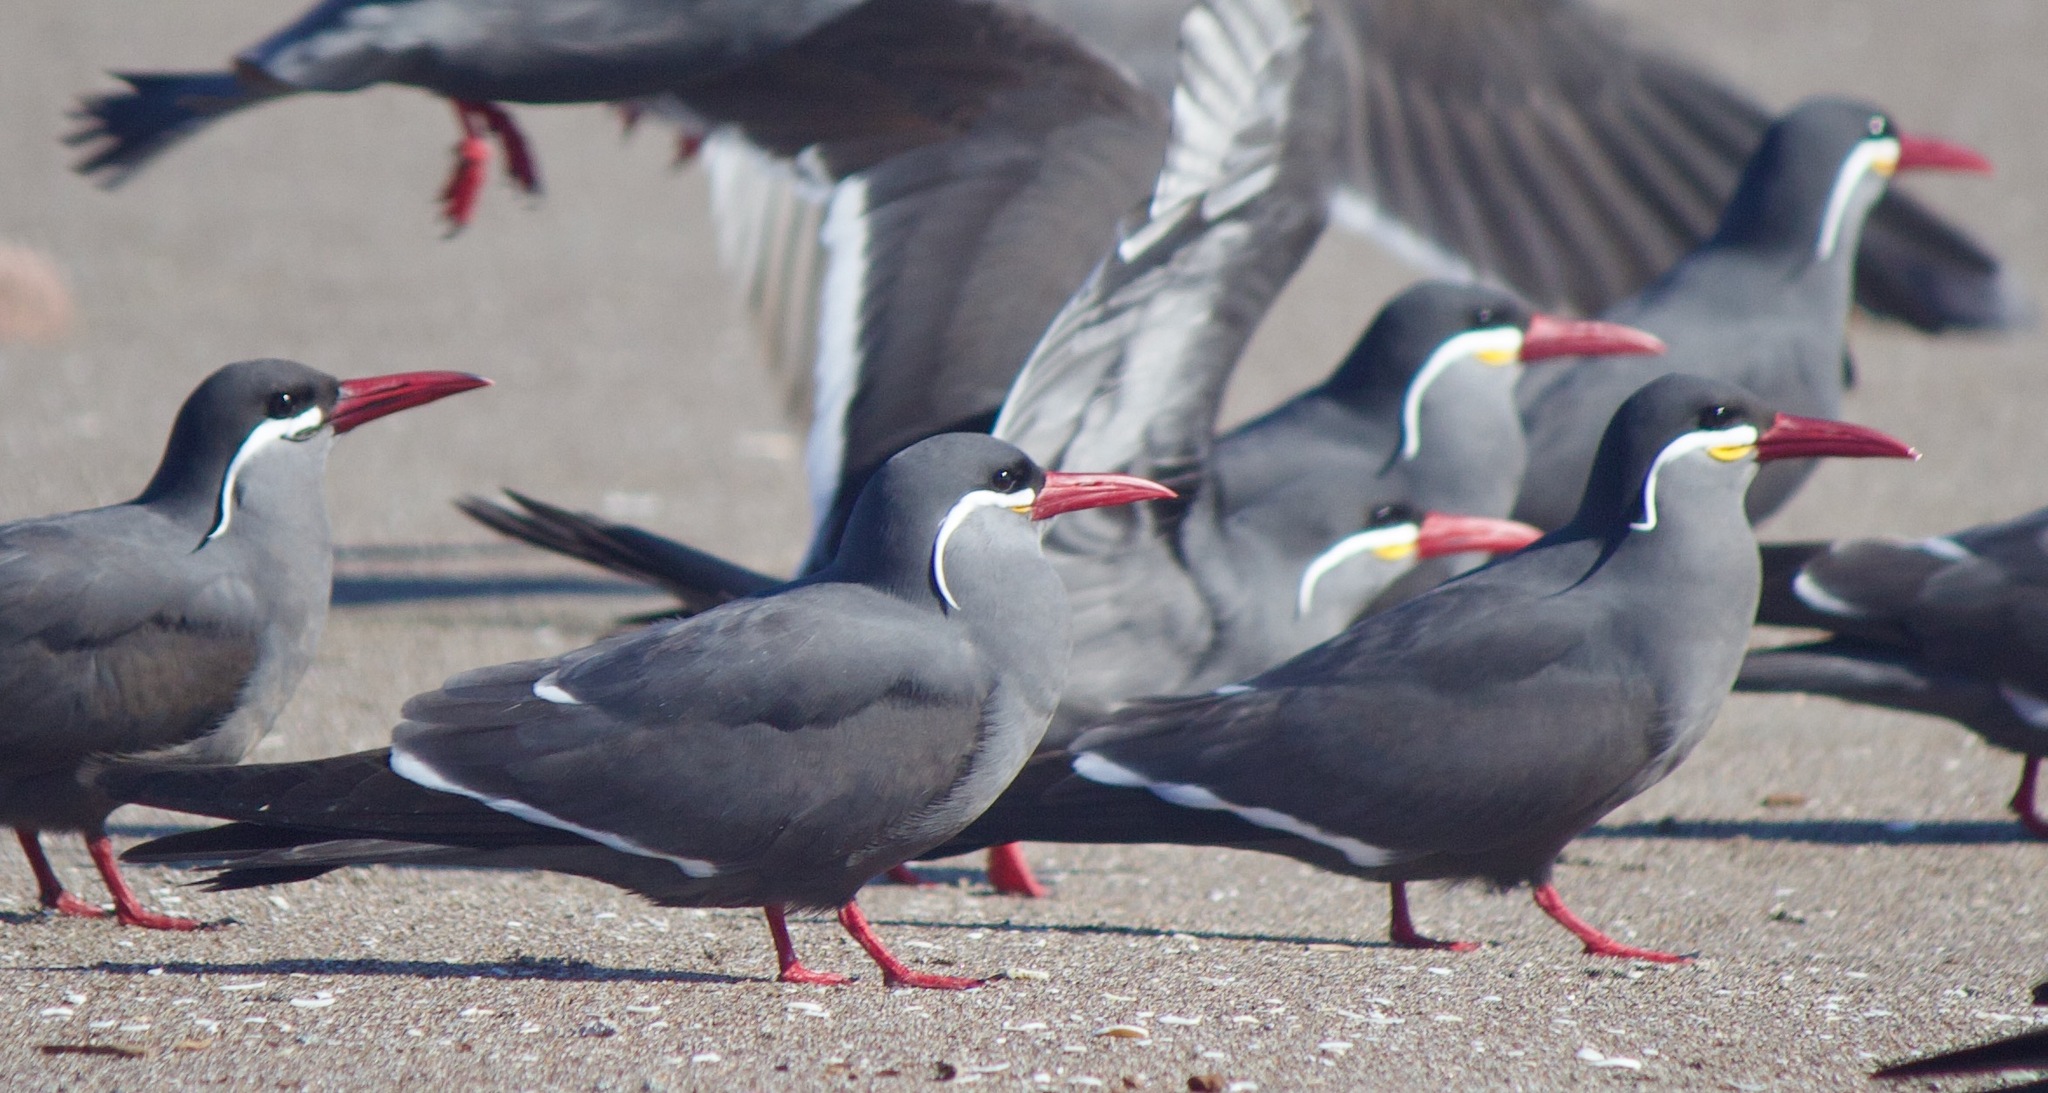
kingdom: Animalia
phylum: Chordata
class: Aves
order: Charadriiformes
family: Laridae
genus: Larosterna
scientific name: Larosterna inca
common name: Inca tern
